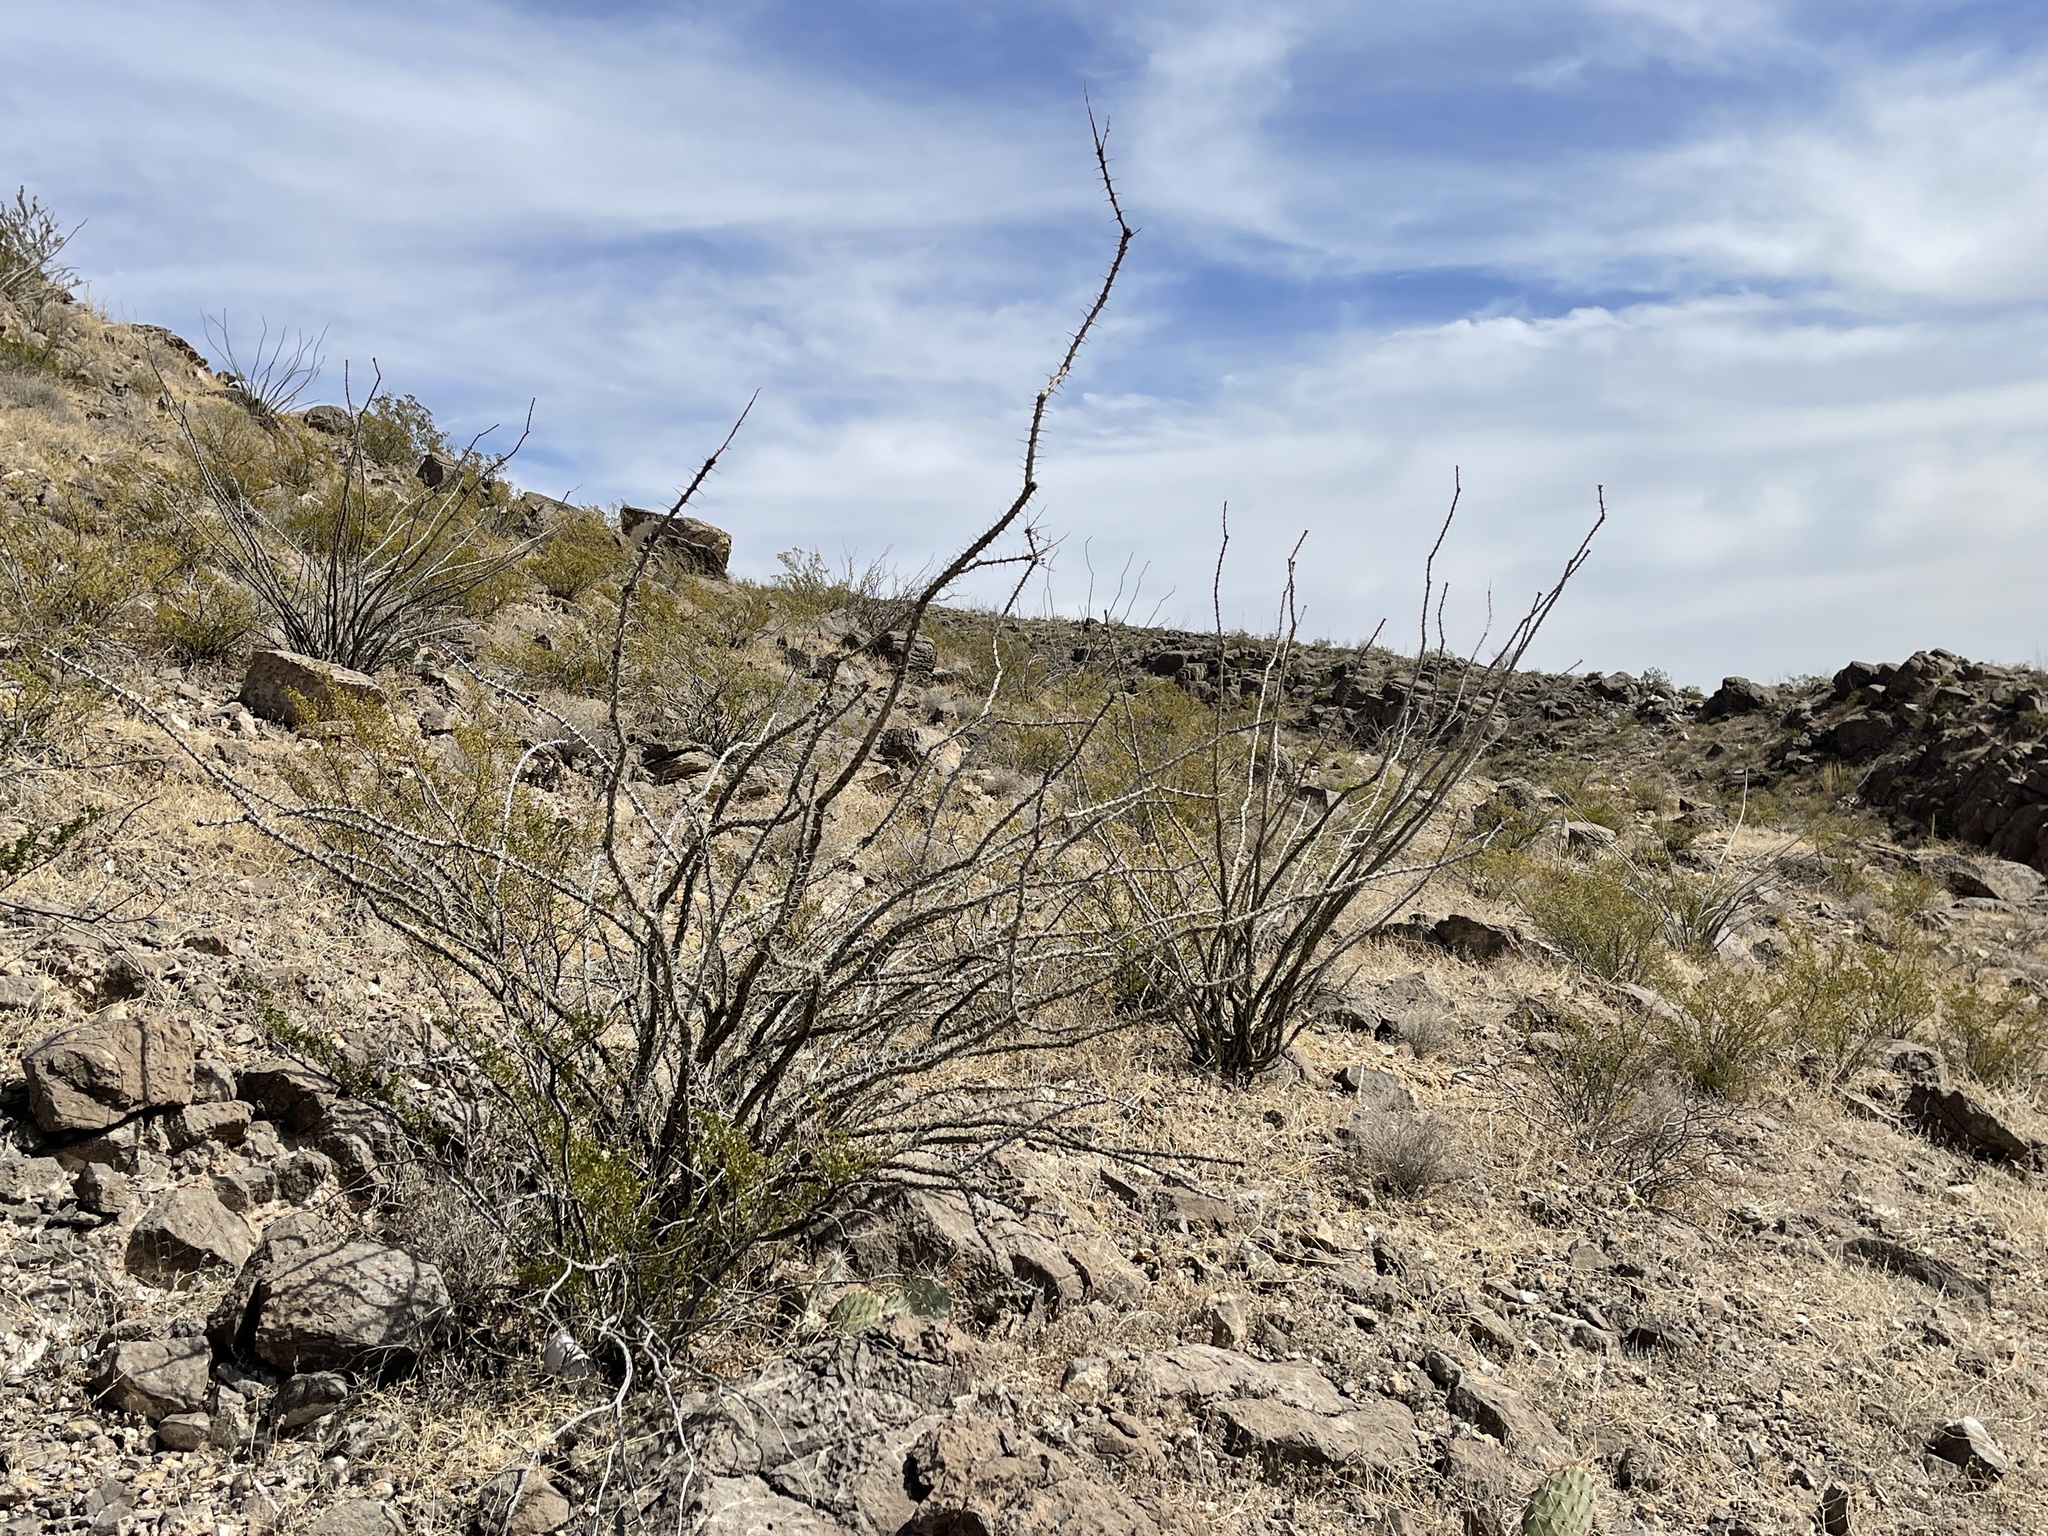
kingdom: Plantae
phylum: Tracheophyta
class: Magnoliopsida
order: Ericales
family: Fouquieriaceae
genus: Fouquieria
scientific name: Fouquieria splendens
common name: Vine-cactus
